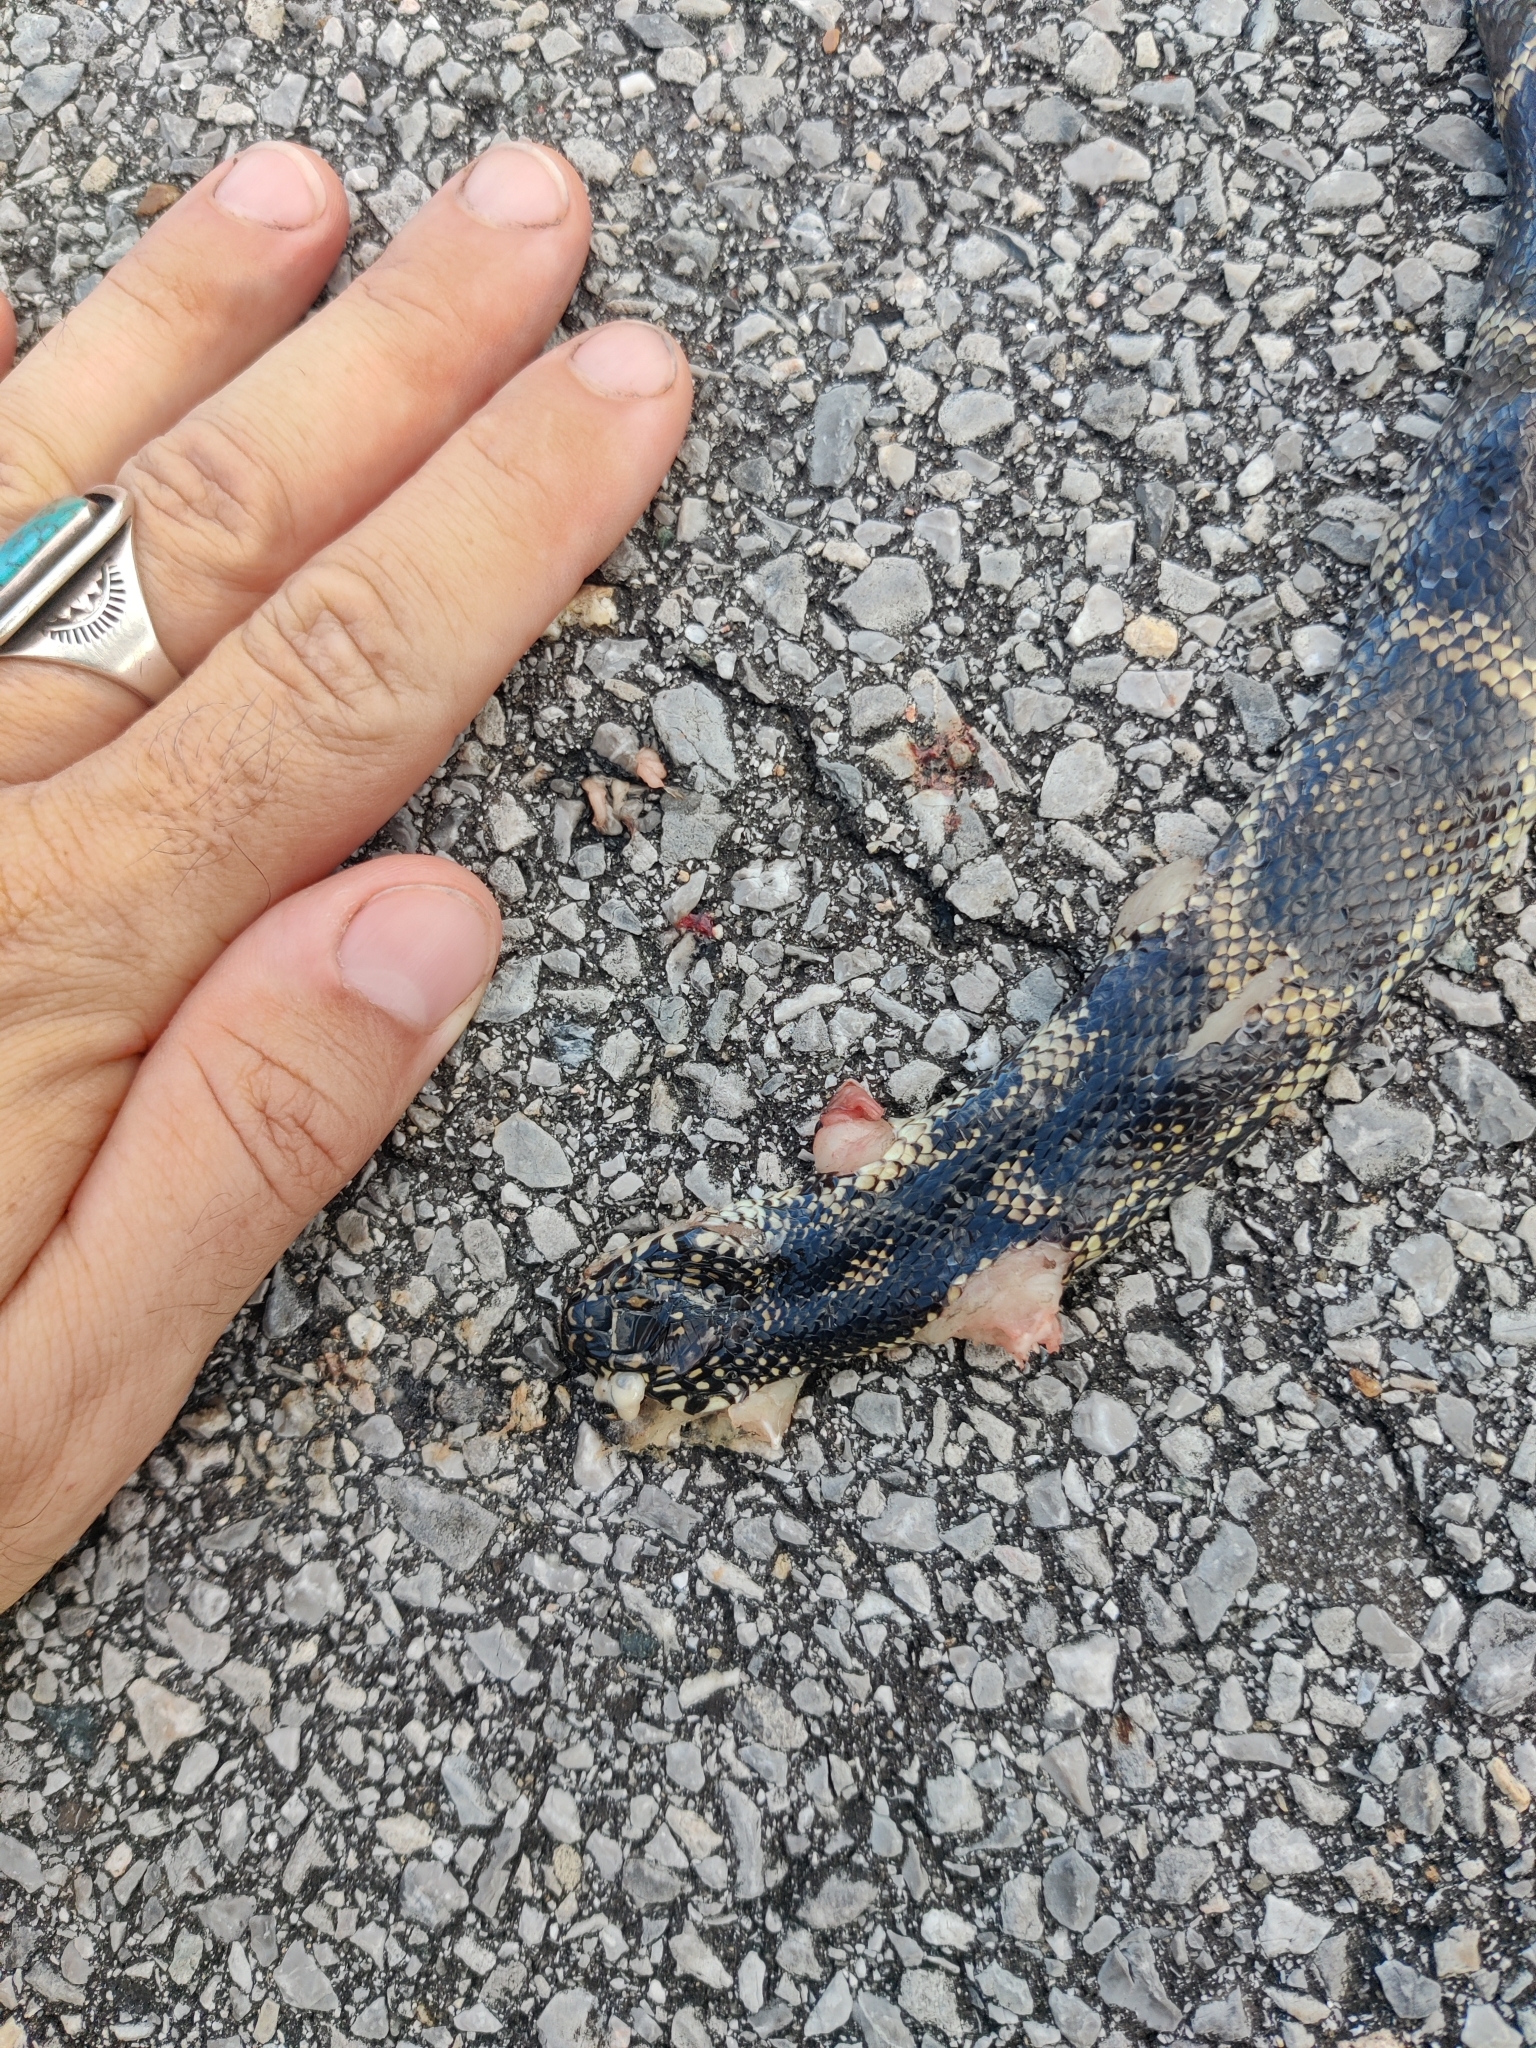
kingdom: Animalia
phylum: Chordata
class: Squamata
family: Colubridae
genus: Lampropeltis
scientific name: Lampropeltis getula
